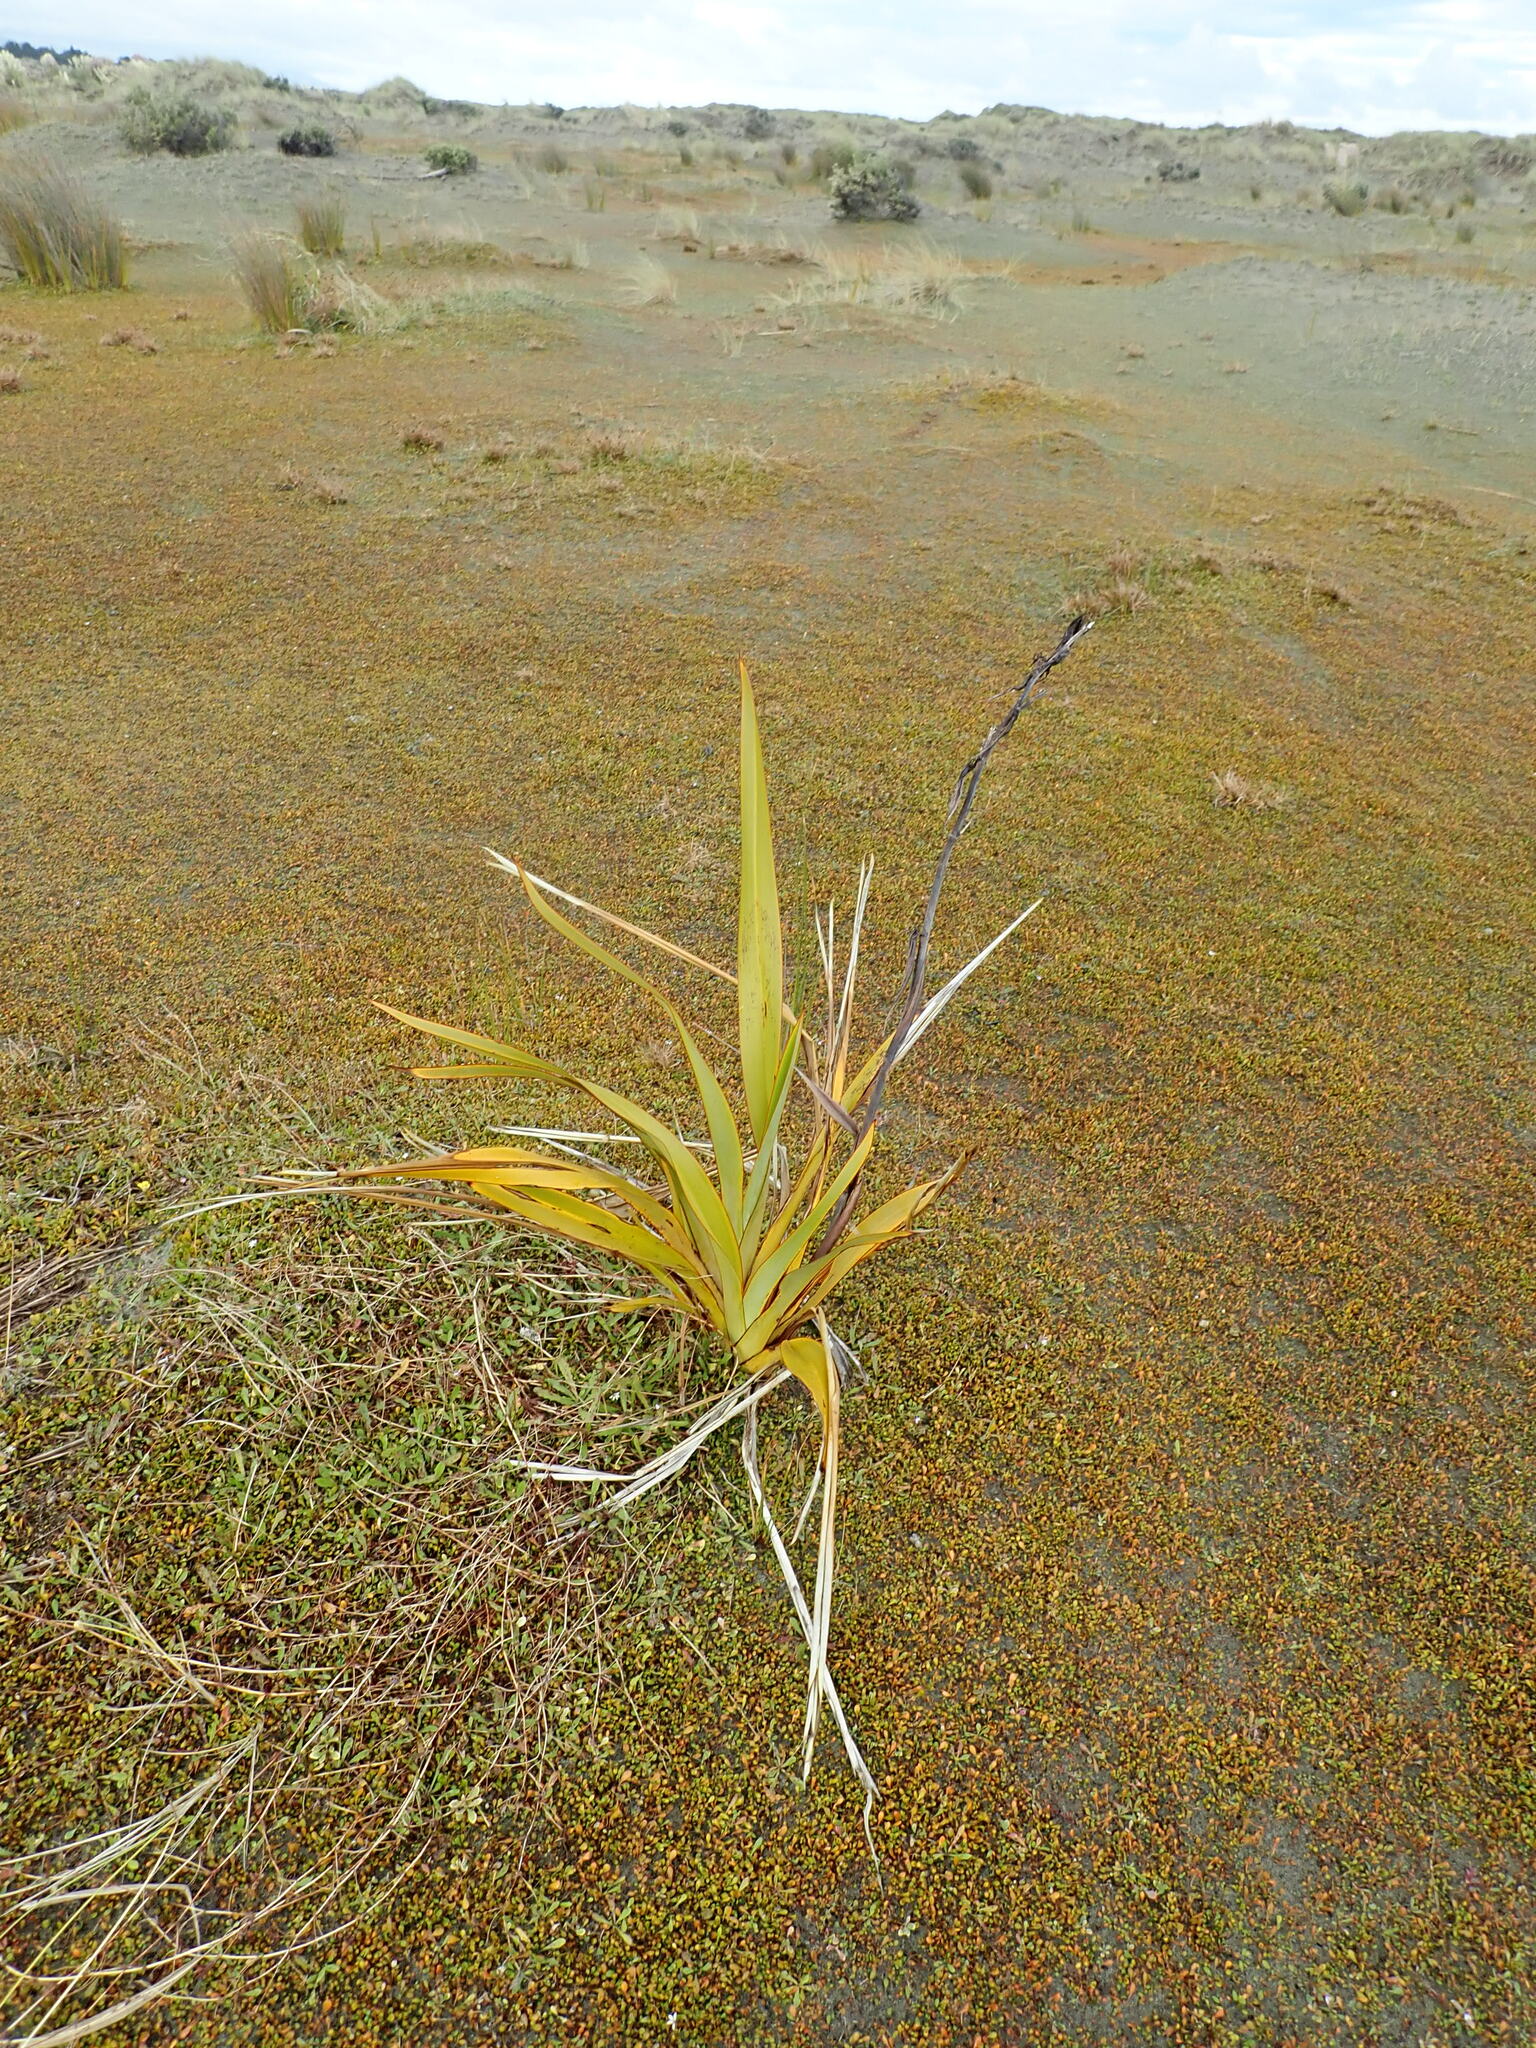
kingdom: Plantae
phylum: Tracheophyta
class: Liliopsida
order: Asparagales
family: Asphodelaceae
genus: Phormium
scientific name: Phormium tenax
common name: New zealand flax
